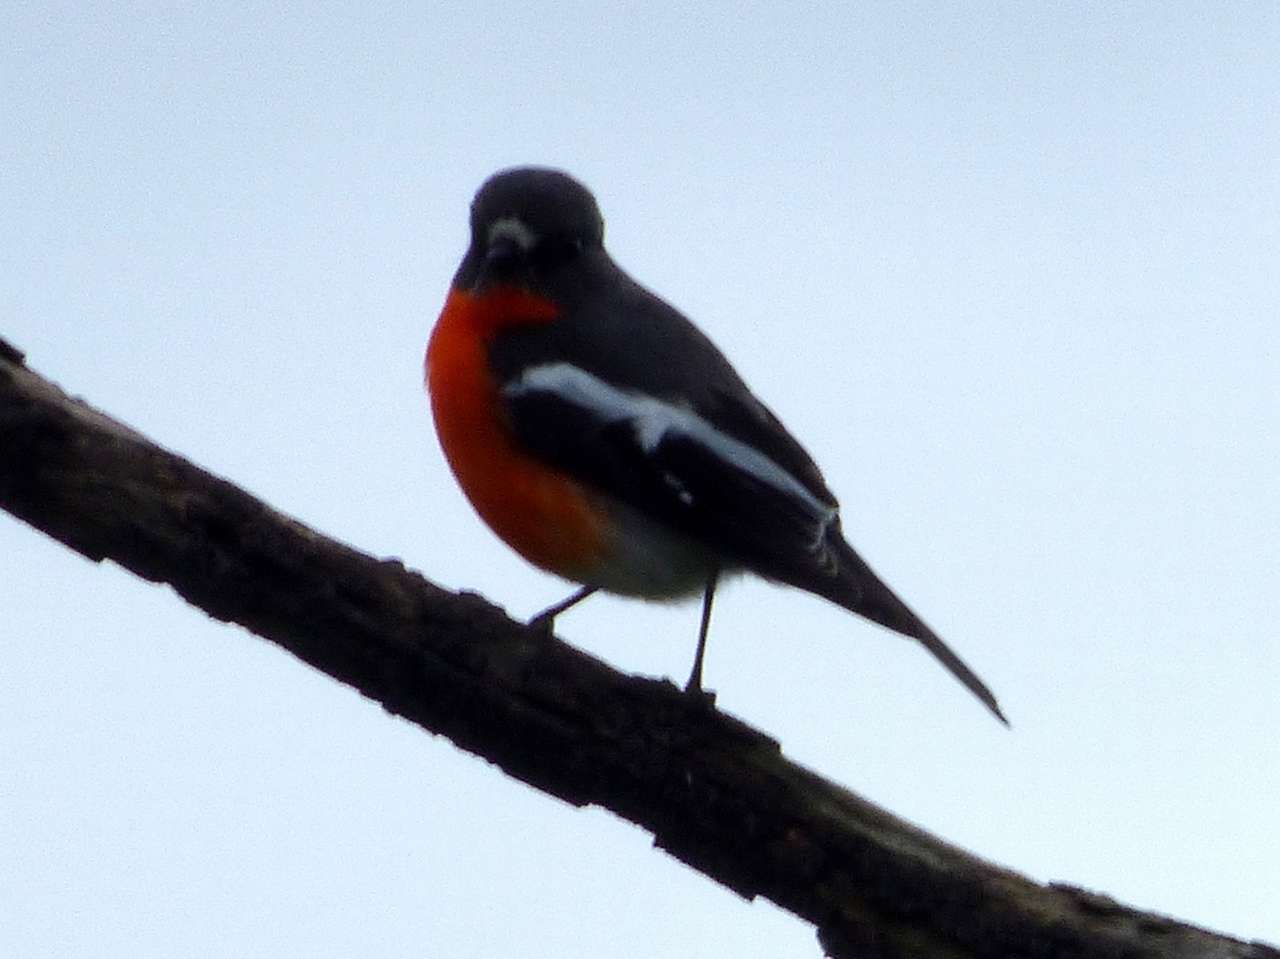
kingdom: Animalia
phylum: Chordata
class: Aves
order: Passeriformes
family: Petroicidae
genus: Petroica
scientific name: Petroica phoenicea
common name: Flame robin
